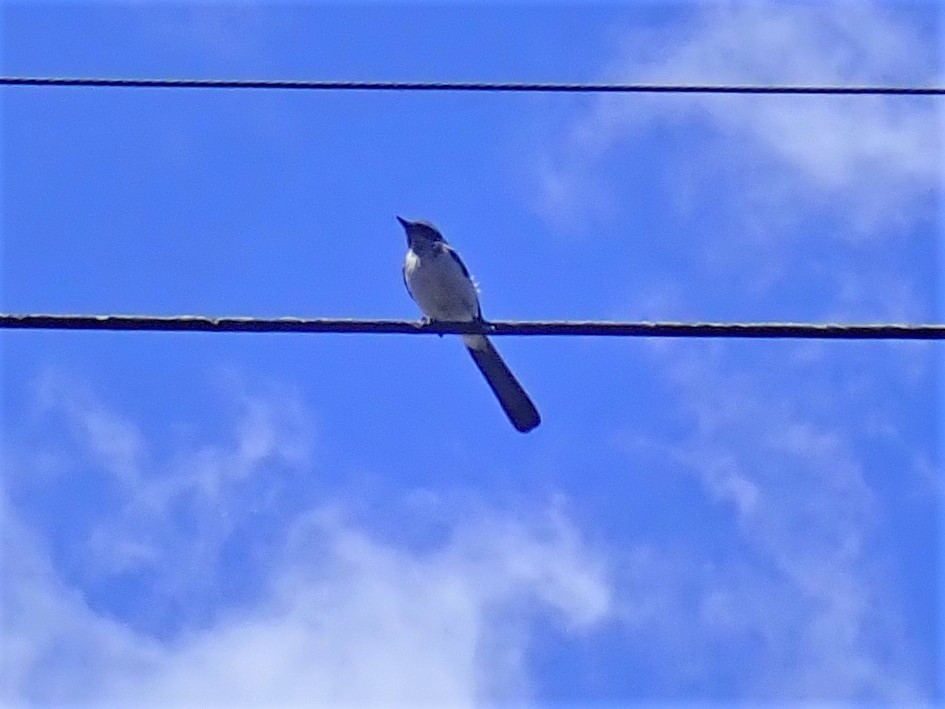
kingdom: Animalia
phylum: Chordata
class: Aves
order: Passeriformes
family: Corvidae
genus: Aphelocoma
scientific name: Aphelocoma californica
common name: California scrub-jay
